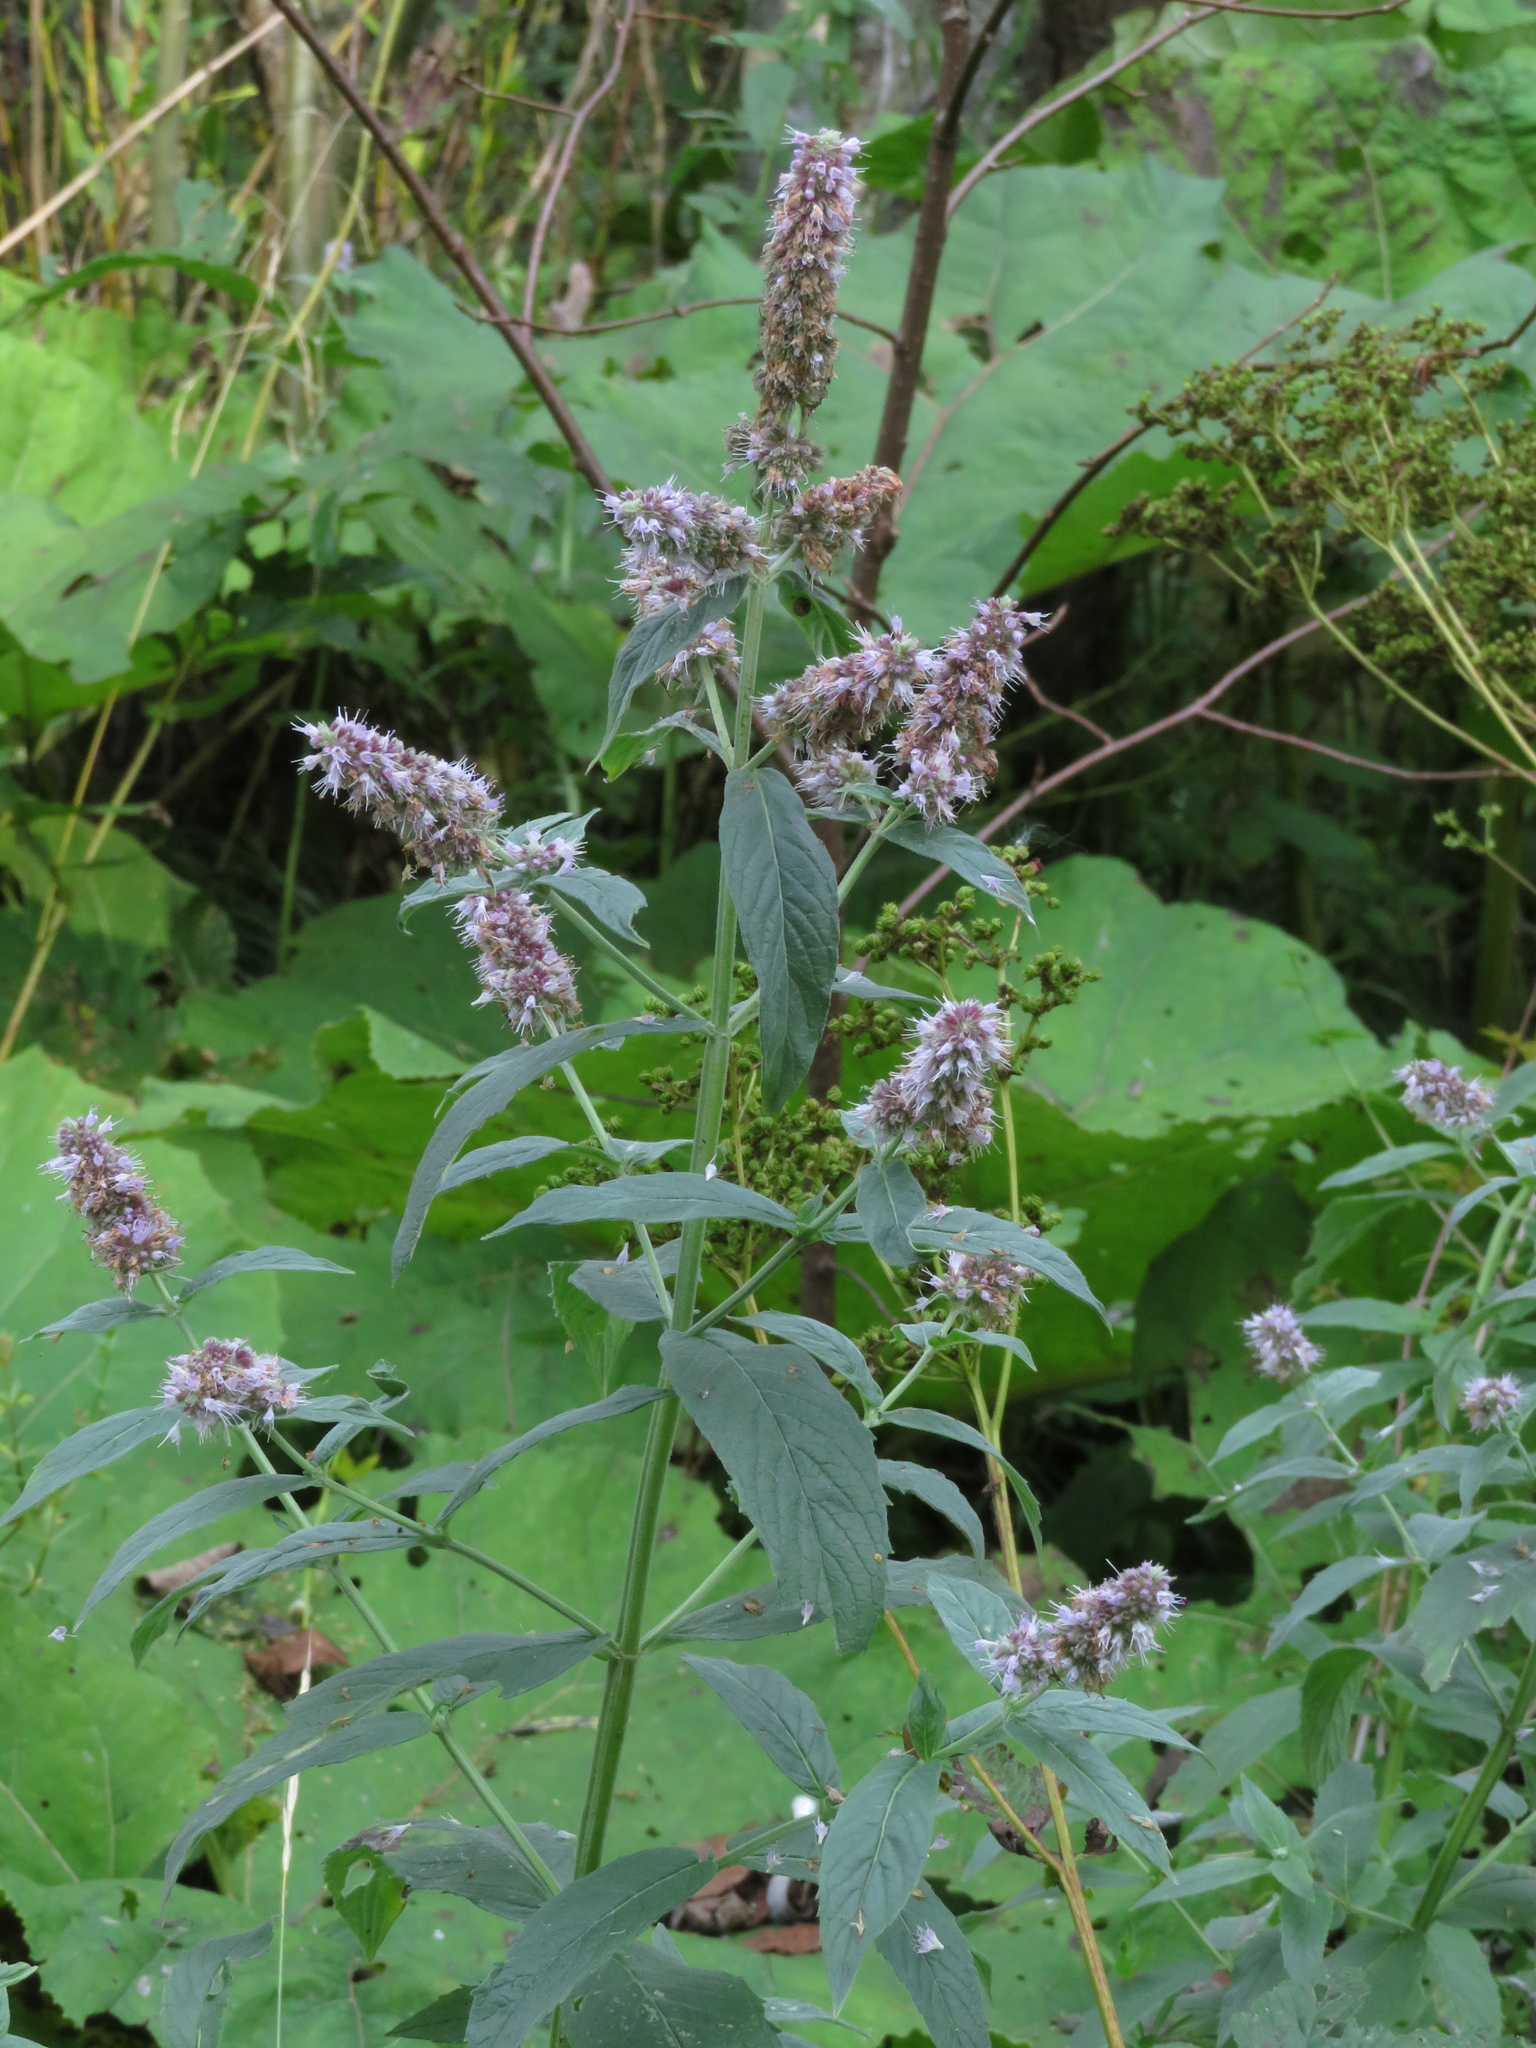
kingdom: Plantae
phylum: Tracheophyta
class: Magnoliopsida
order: Lamiales
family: Lamiaceae
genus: Mentha
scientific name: Mentha longifolia
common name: Horse mint
